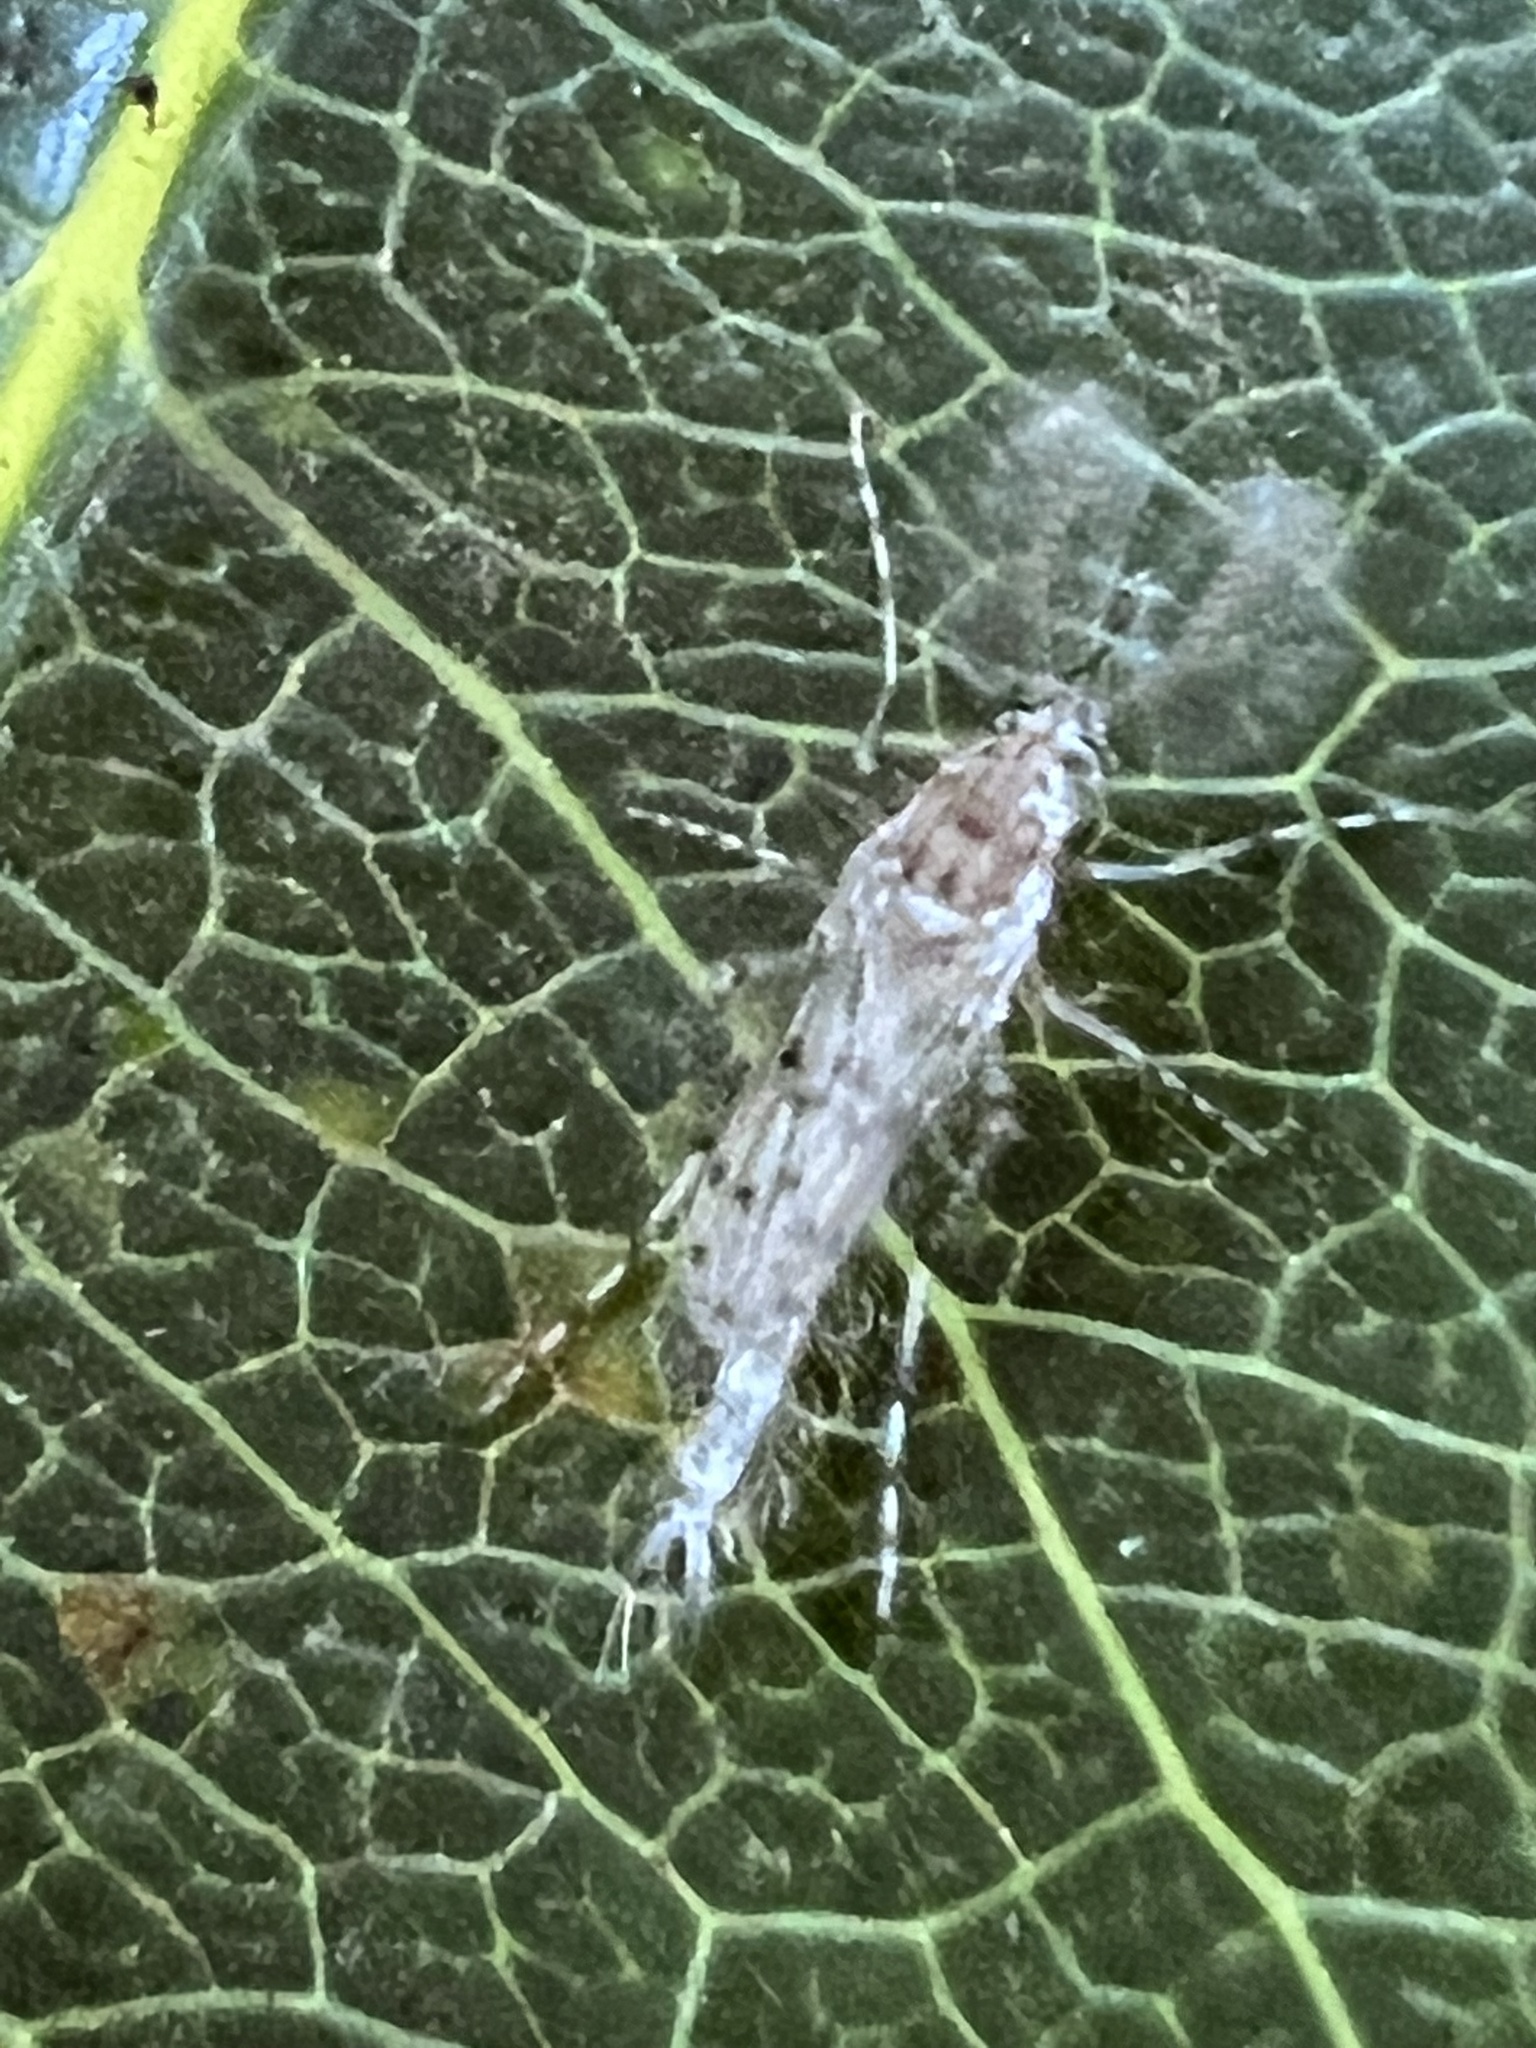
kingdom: Animalia
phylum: Arthropoda
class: Insecta
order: Diptera
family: Chaoboridae
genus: Chaoborus
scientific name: Chaoborus punctipennis
